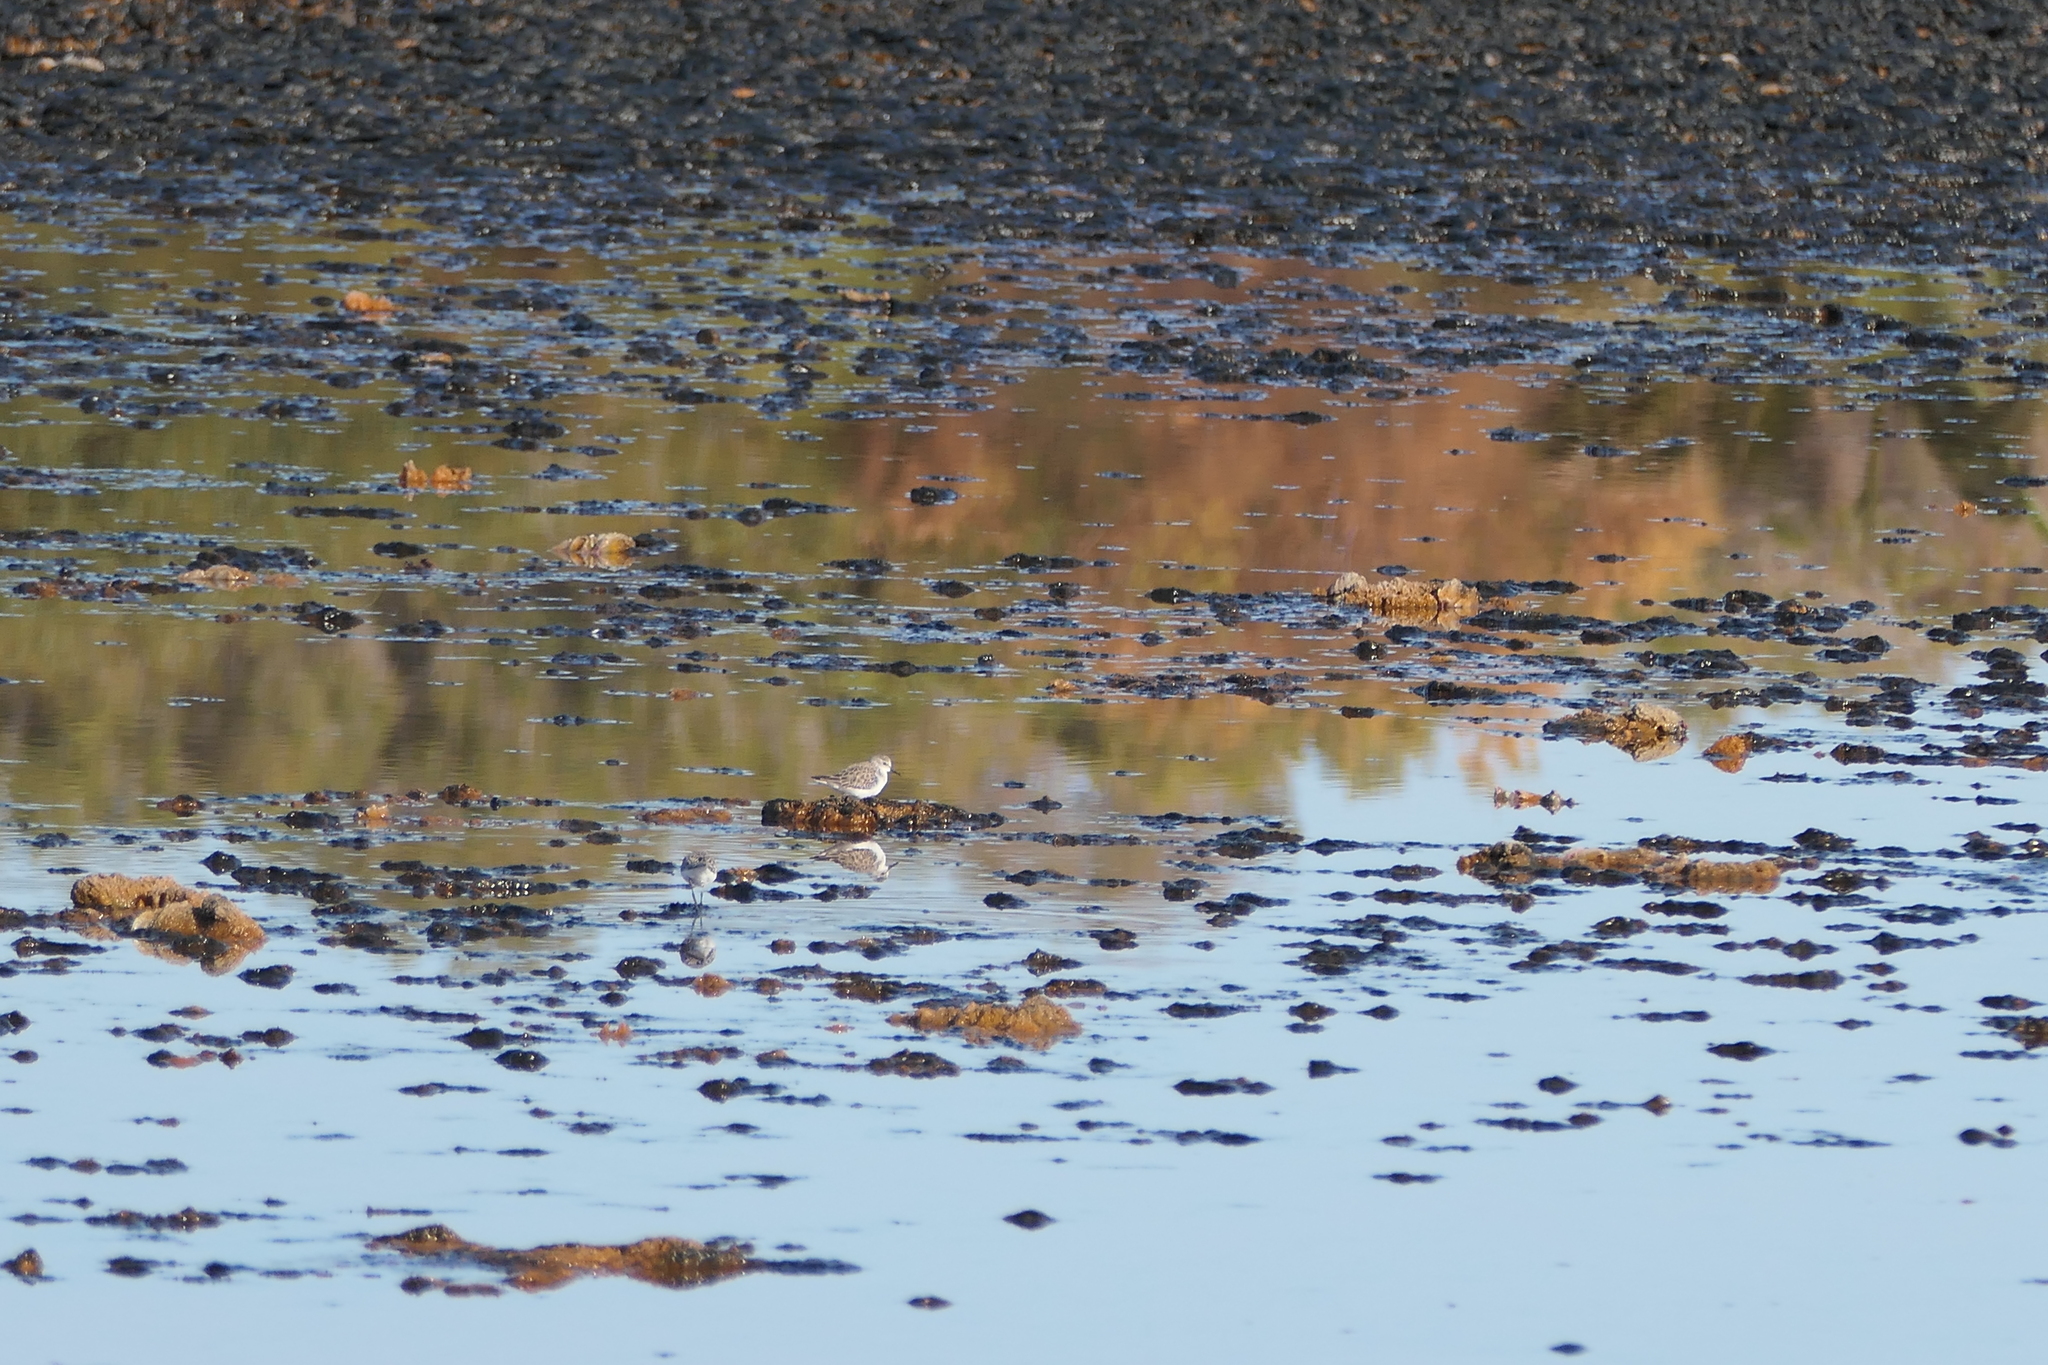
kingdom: Animalia
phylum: Chordata
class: Aves
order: Charadriiformes
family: Scolopacidae
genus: Calidris
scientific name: Calidris minuta
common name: Little stint
